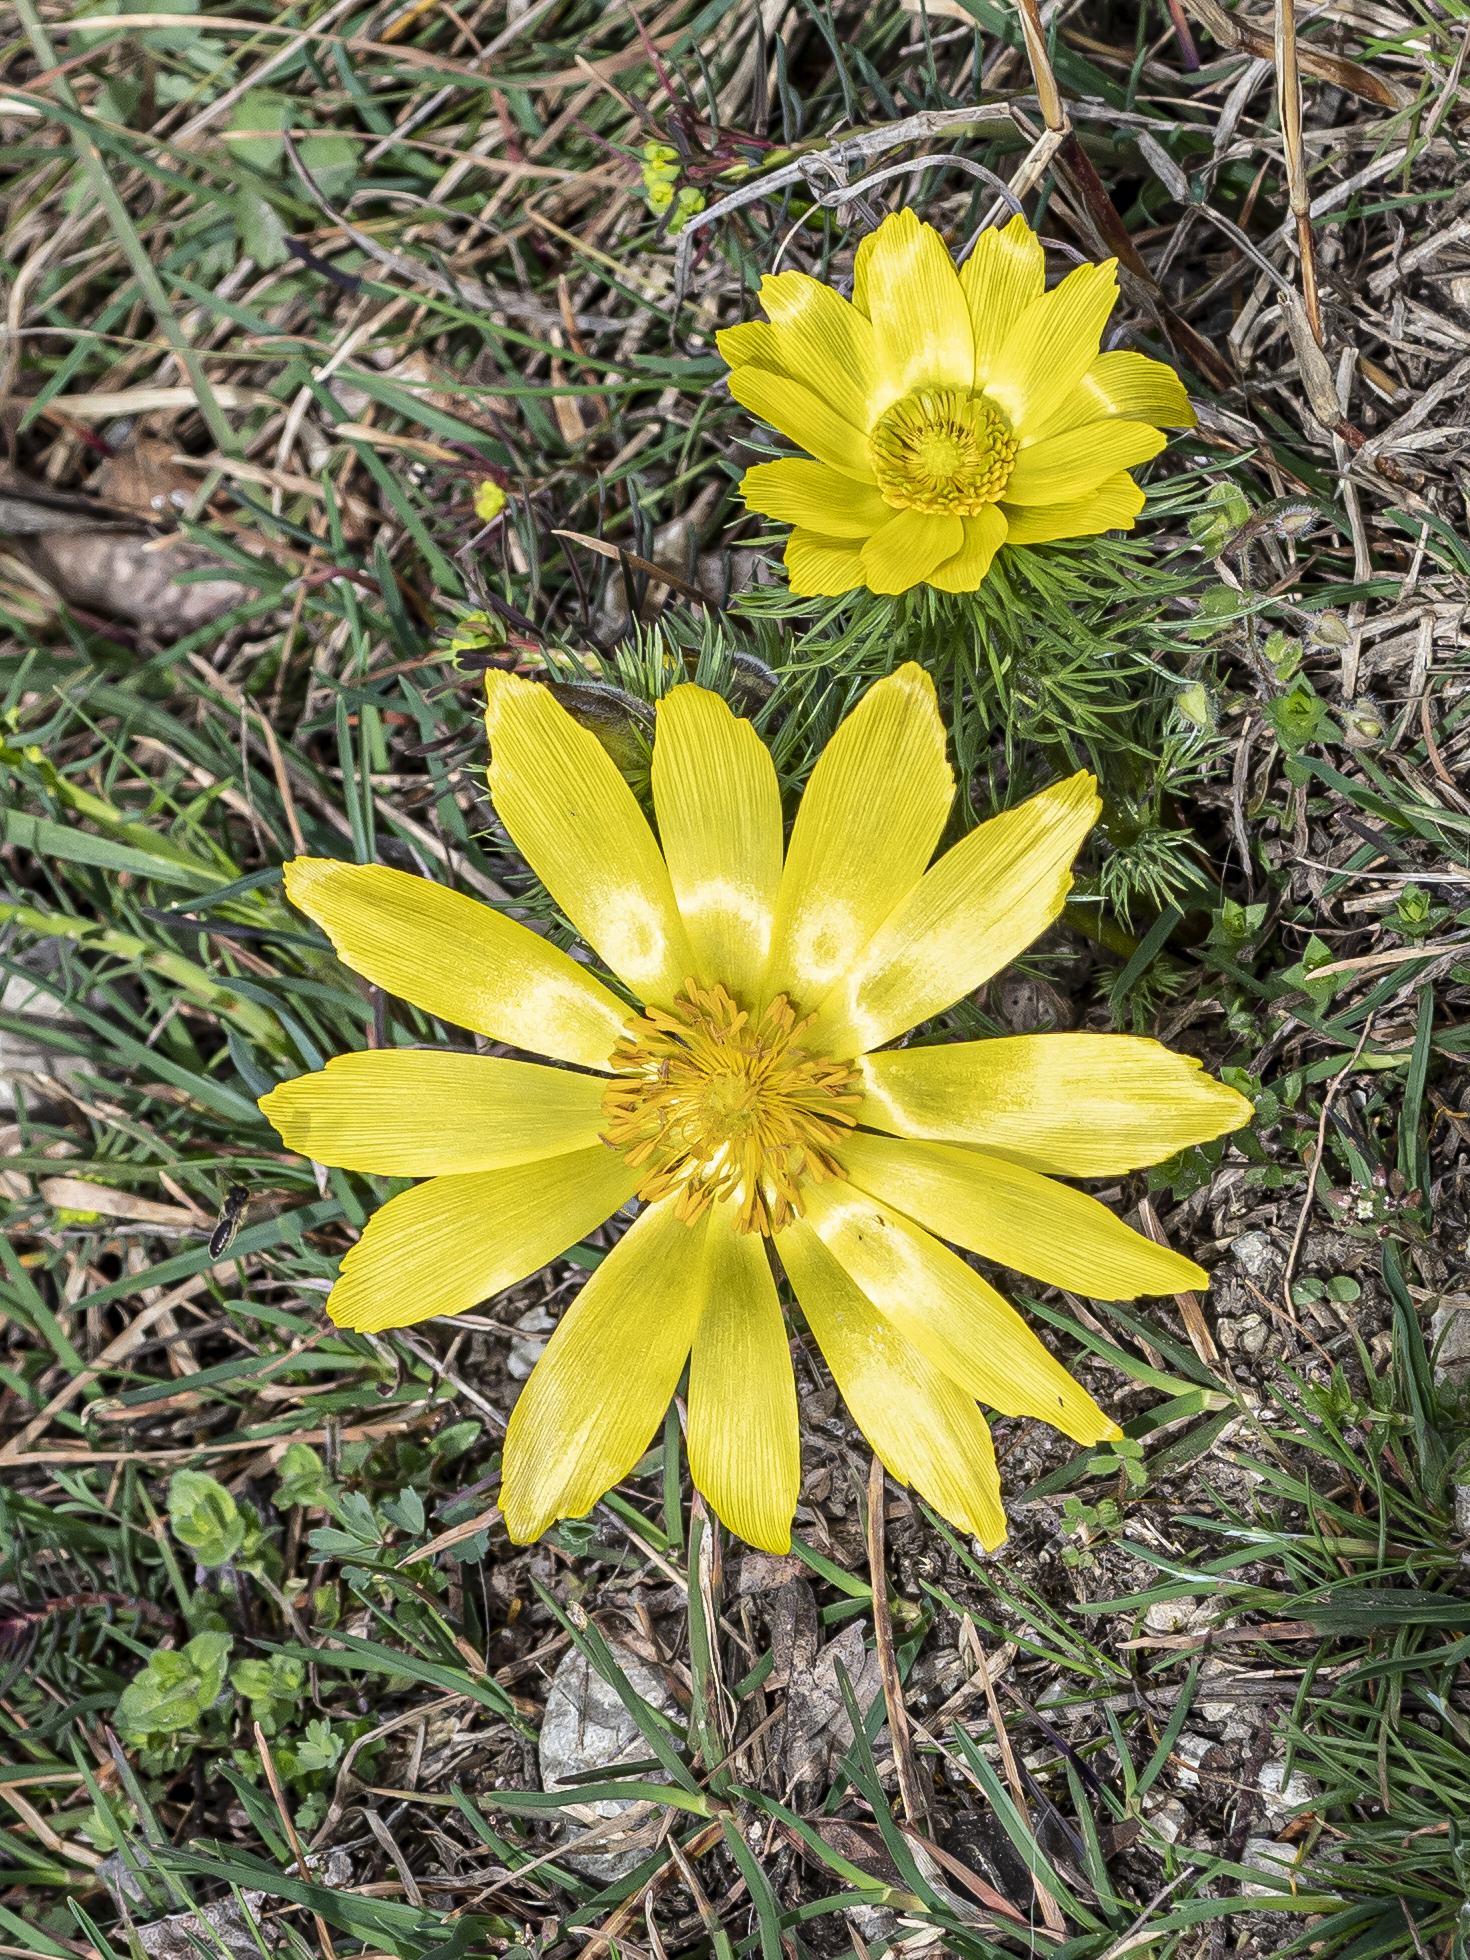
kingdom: Plantae
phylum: Tracheophyta
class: Magnoliopsida
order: Ranunculales
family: Ranunculaceae
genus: Adonis
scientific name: Adonis vernalis
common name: Yellow pheasants-eye
